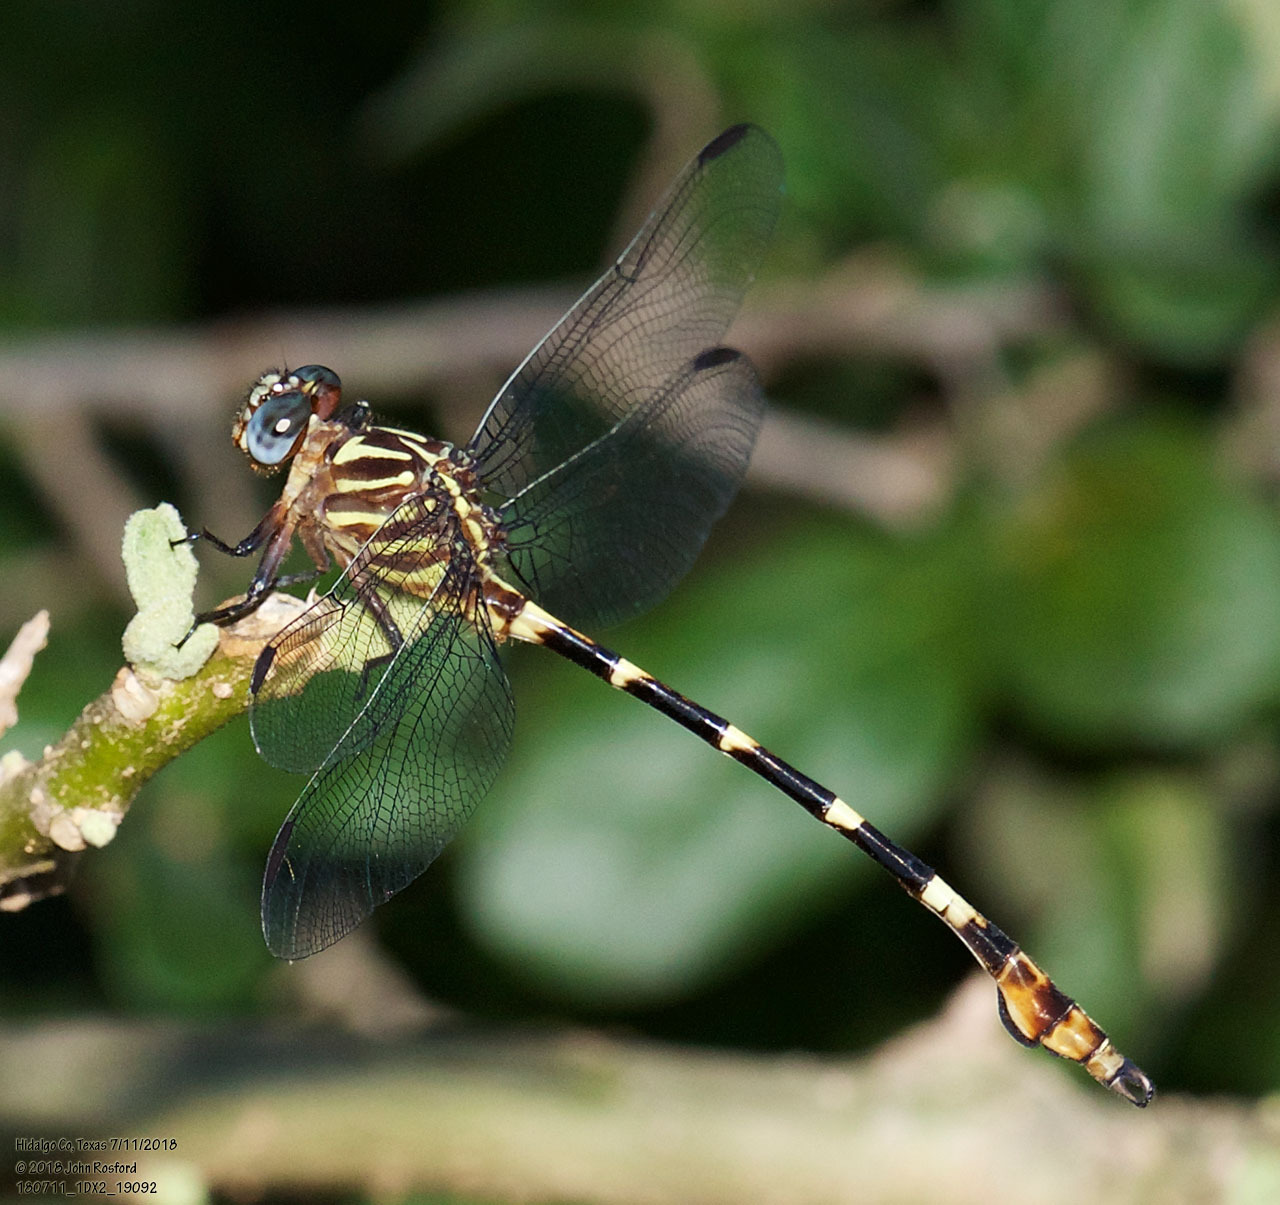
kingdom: Animalia
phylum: Arthropoda
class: Insecta
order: Odonata
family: Gomphidae
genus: Phyllogomphoides
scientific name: Phyllogomphoides albrighti
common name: Five-striped leaftail
